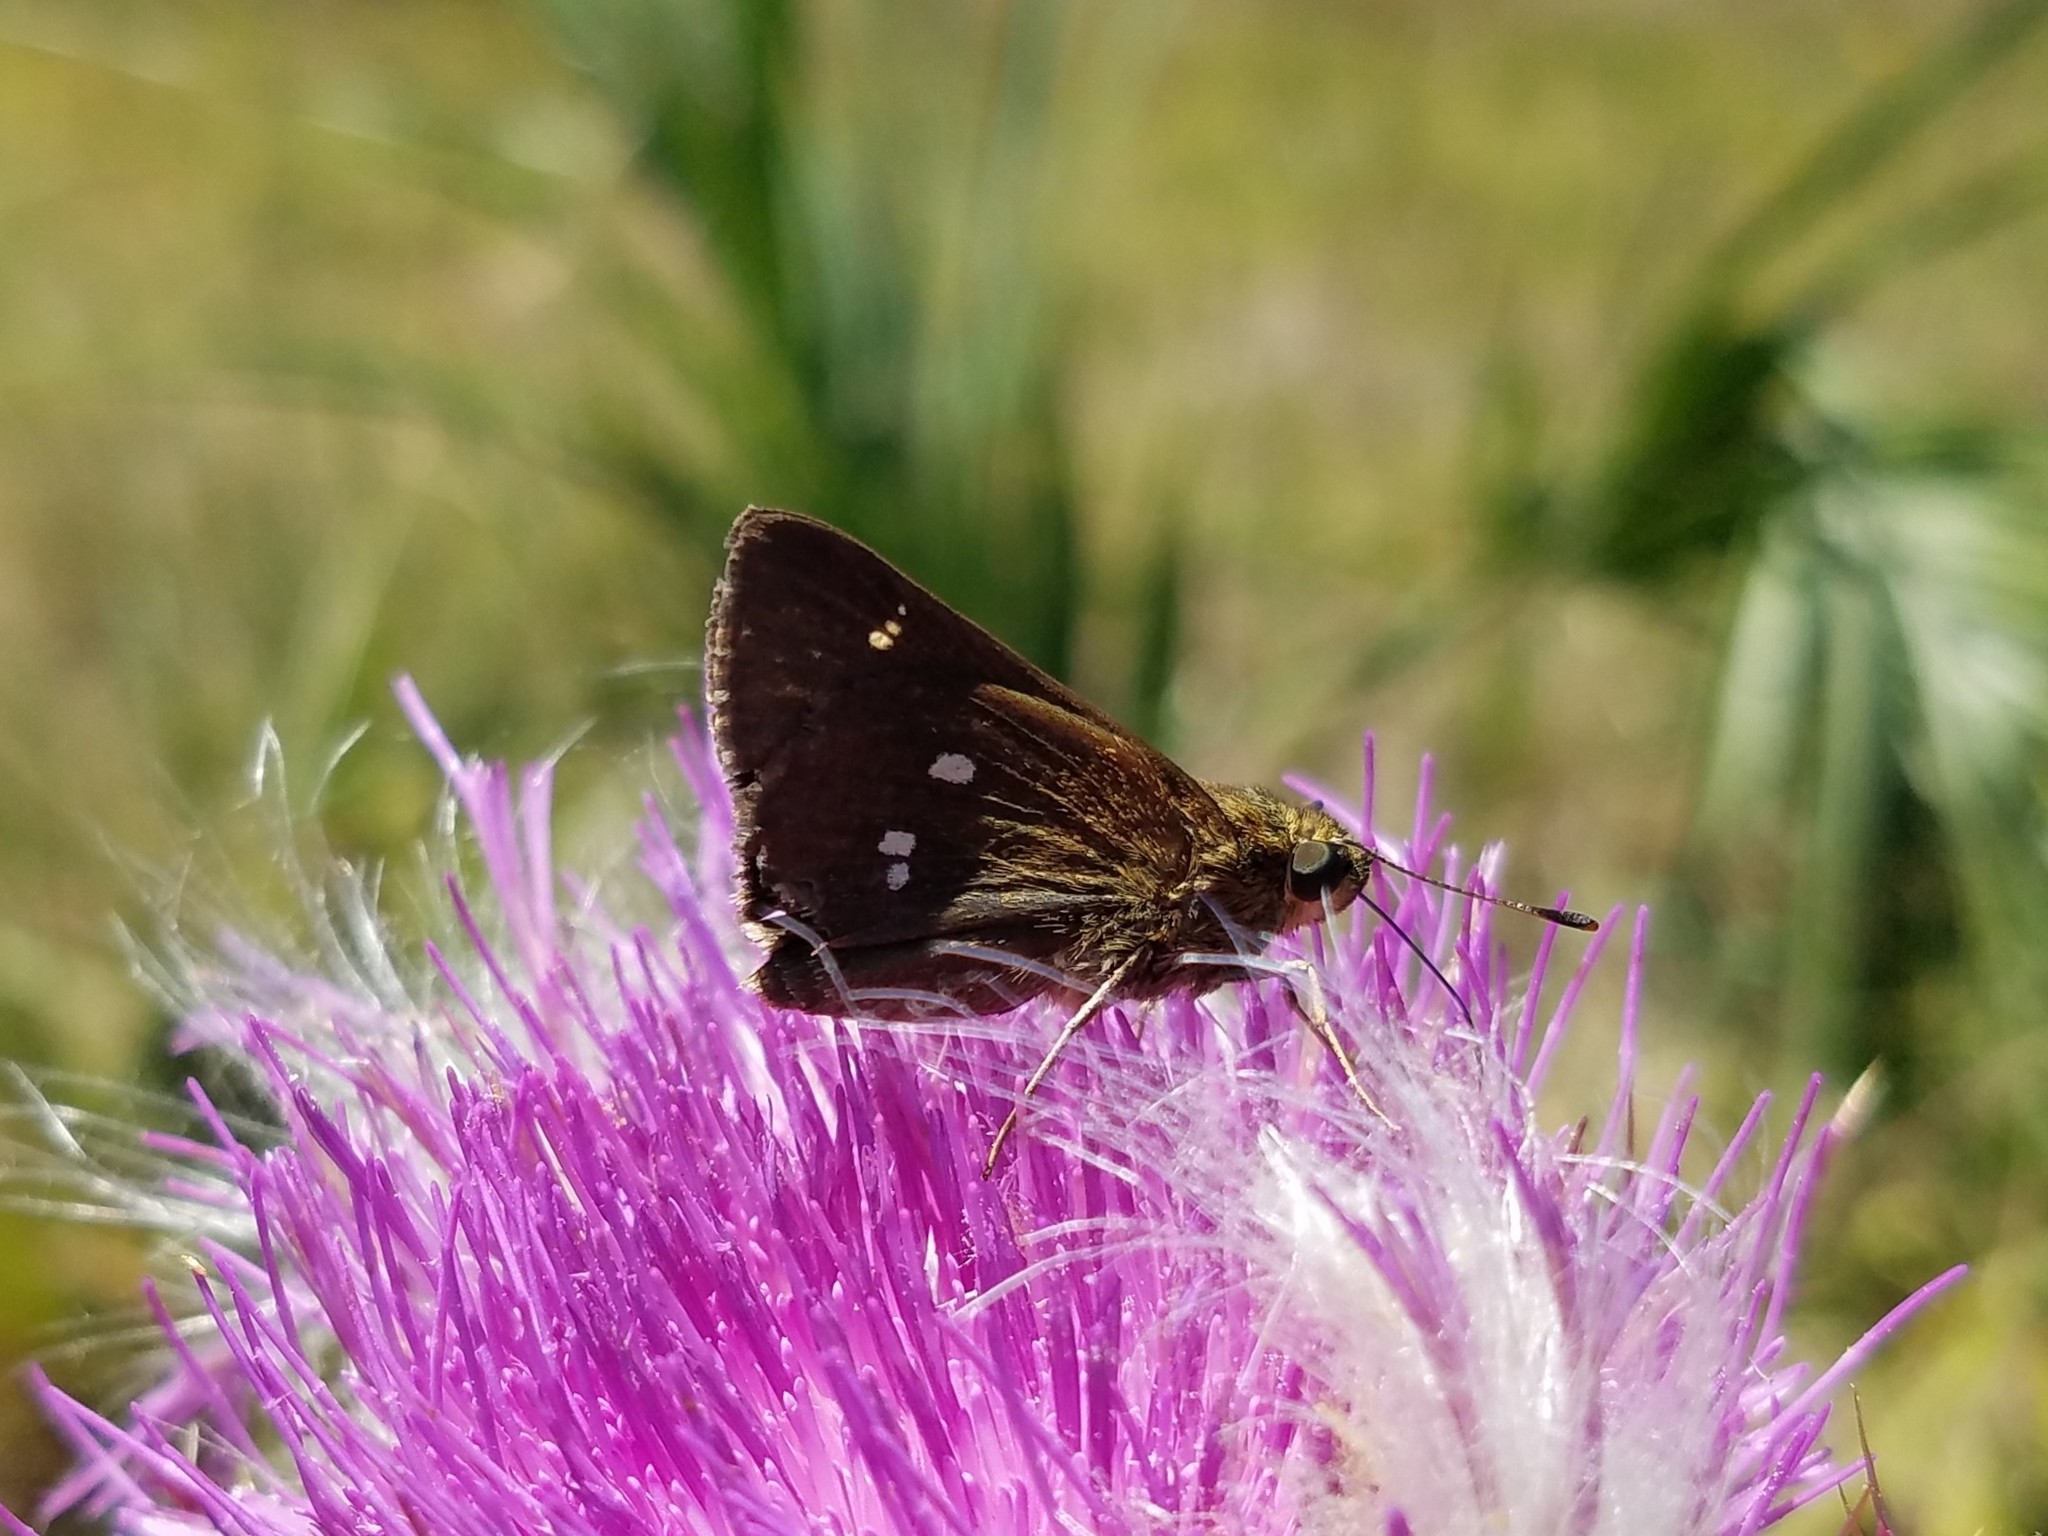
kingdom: Animalia
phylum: Arthropoda
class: Insecta
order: Lepidoptera
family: Hesperiidae
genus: Oligoria
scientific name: Oligoria maculata
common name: Twin-spot skipper
